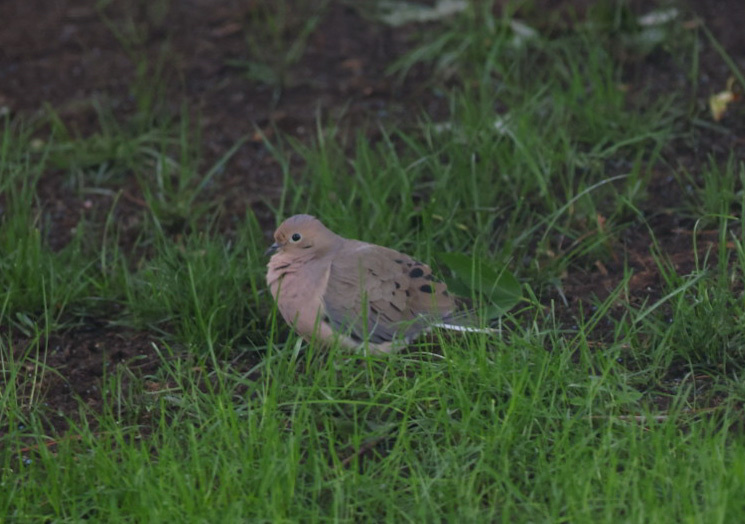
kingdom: Animalia
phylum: Chordata
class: Aves
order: Columbiformes
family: Columbidae
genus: Zenaida
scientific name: Zenaida macroura
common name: Mourning dove
